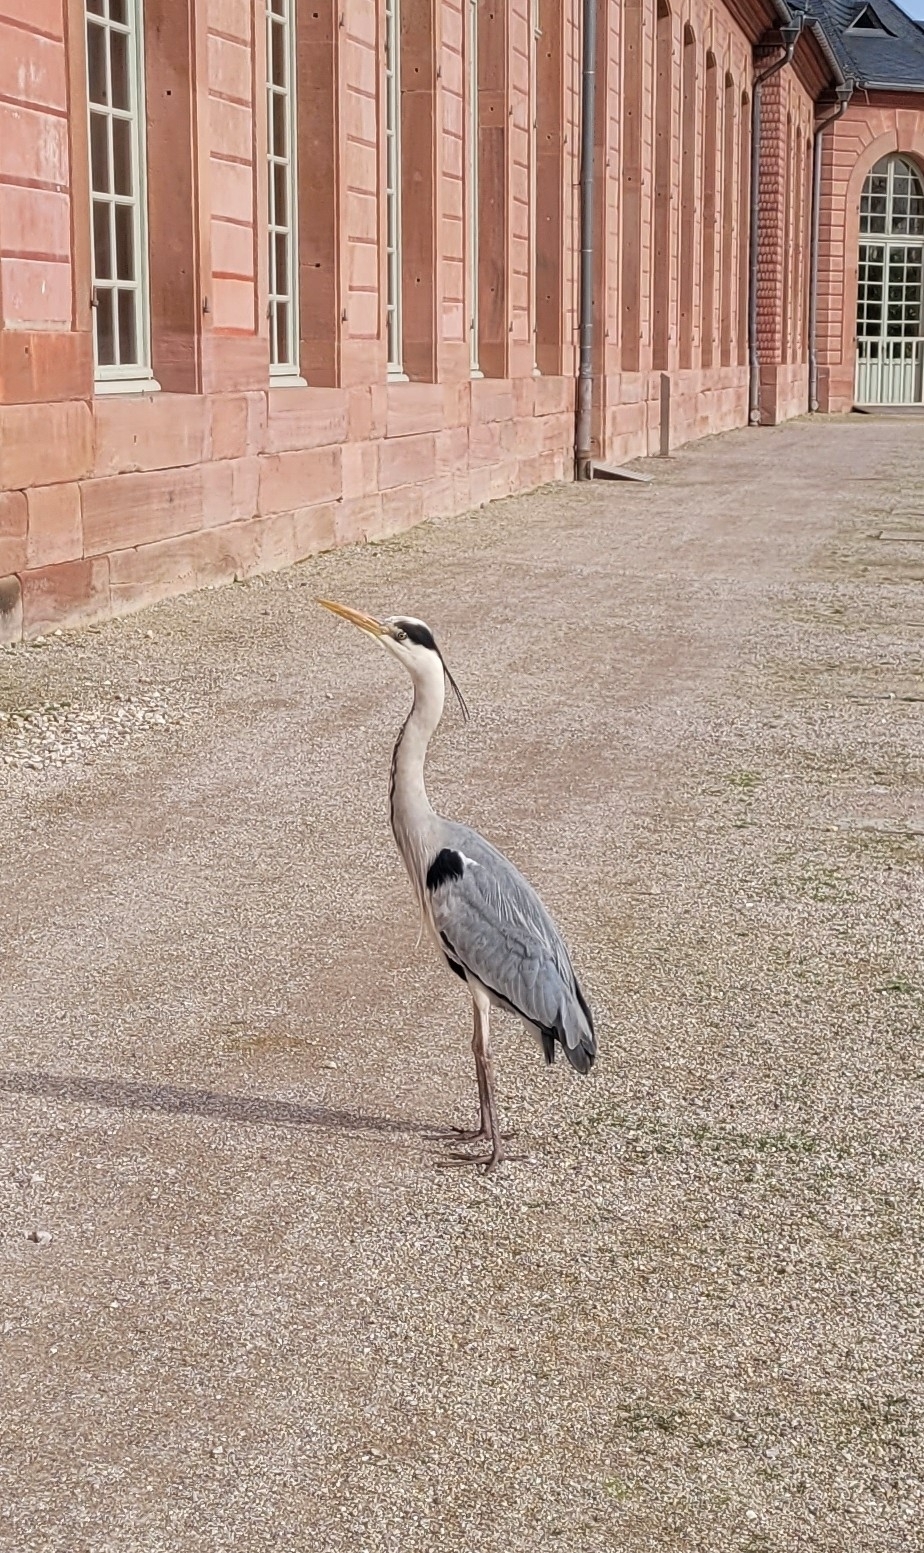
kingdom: Animalia
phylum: Chordata
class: Aves
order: Pelecaniformes
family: Ardeidae
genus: Ardea
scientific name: Ardea cinerea
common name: Grey heron
